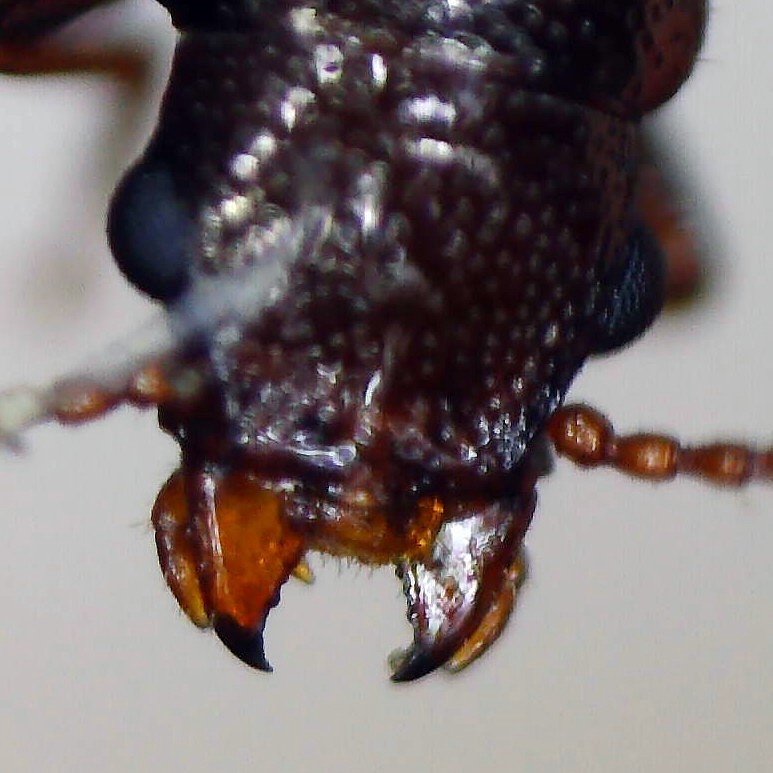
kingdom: Animalia
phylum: Arthropoda
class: Insecta
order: Coleoptera
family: Salpingidae
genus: Sphaeriestes
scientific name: Sphaeriestes castaneus
